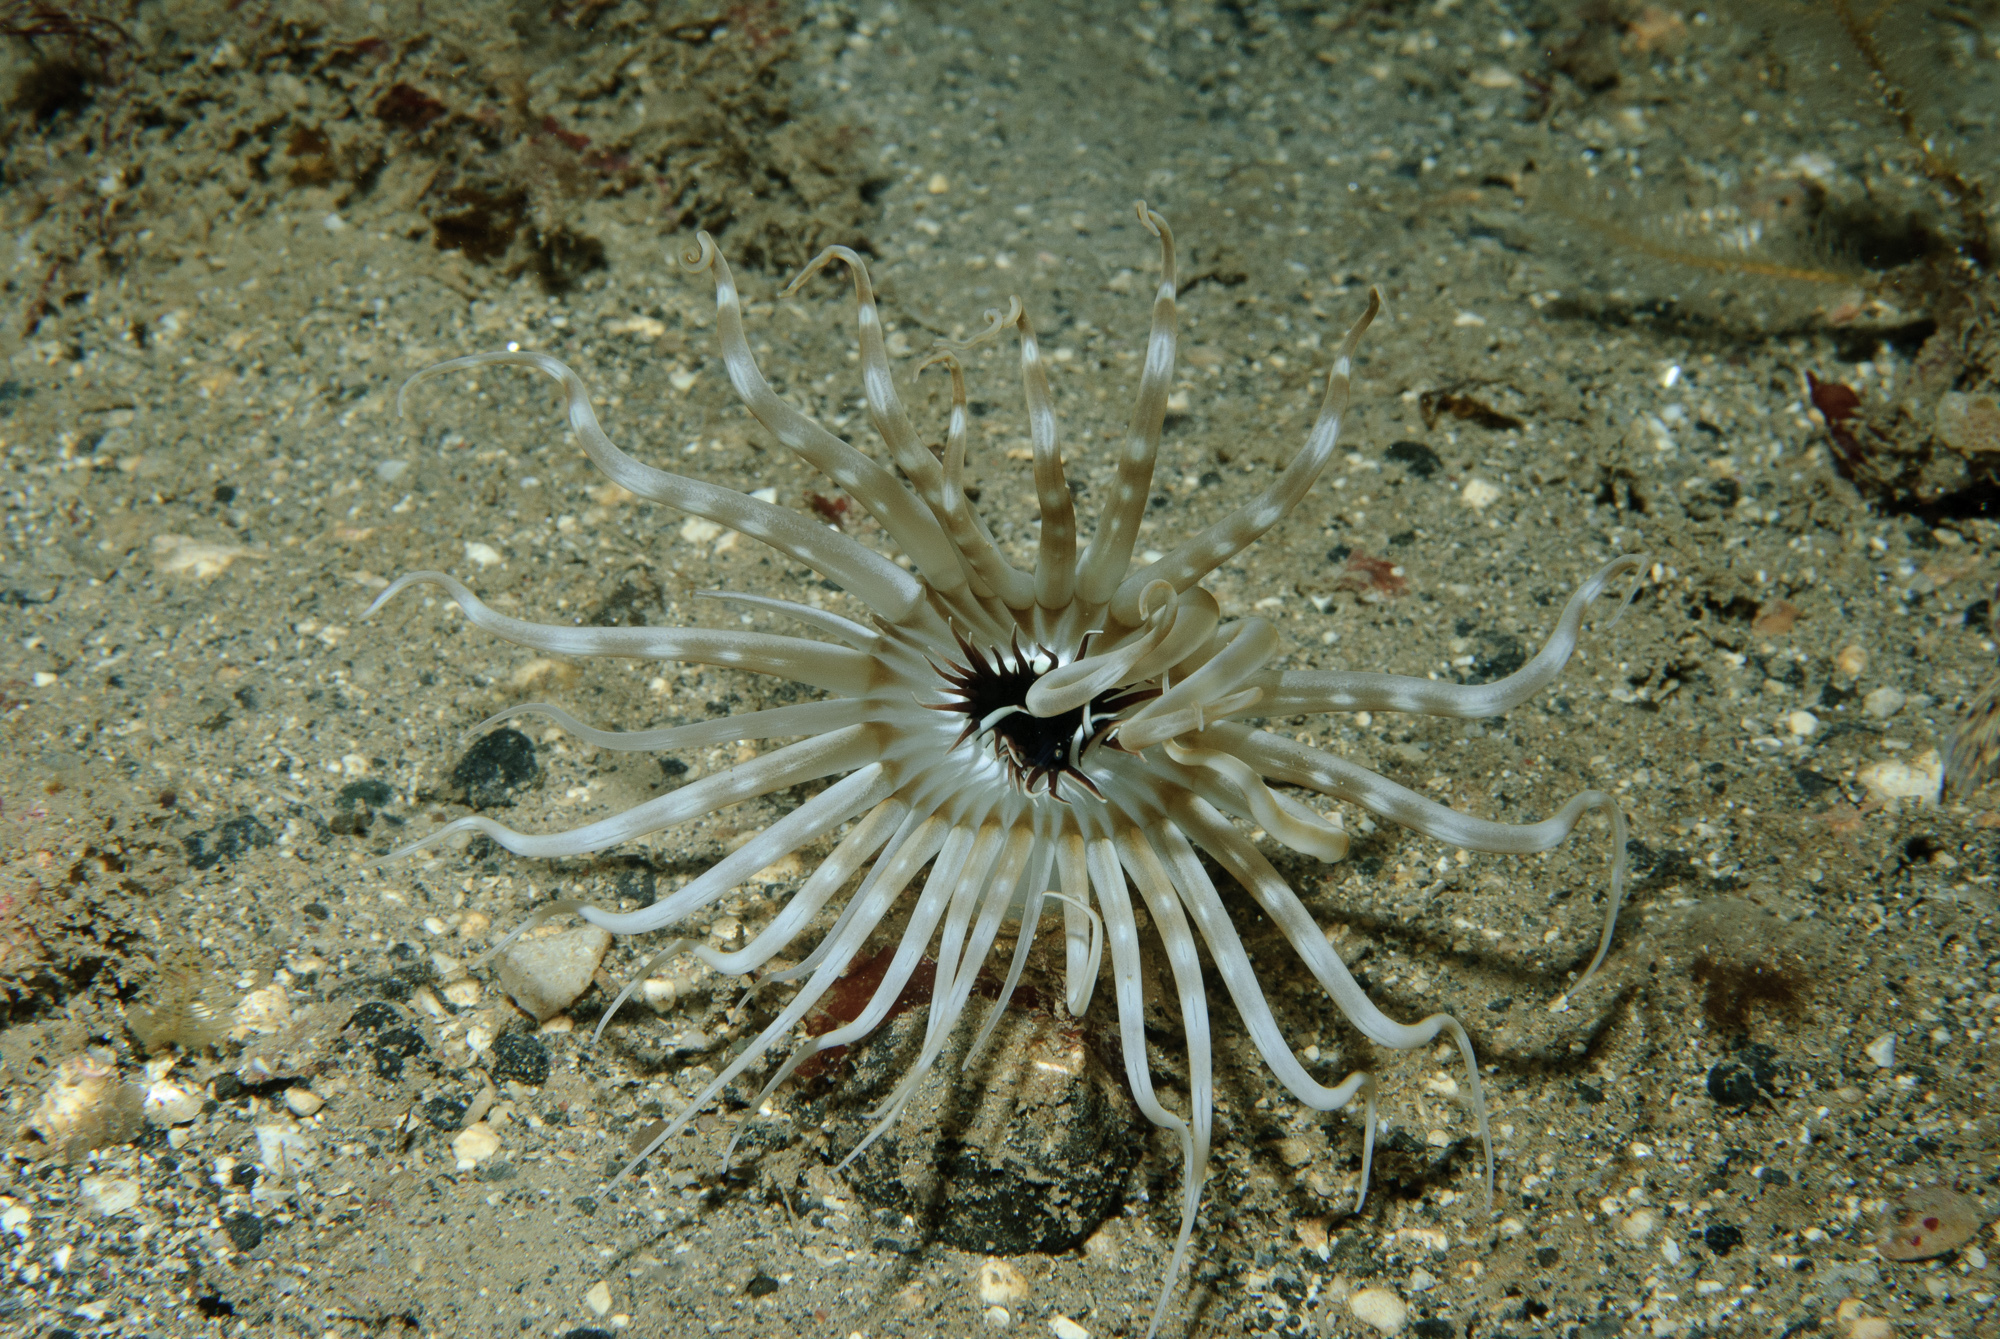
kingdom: Animalia
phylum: Cnidaria
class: Anthozoa
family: Arachnactidae
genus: Arachnanthus
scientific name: Arachnanthus sarsi
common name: Scarce tube-dwelling anemone
